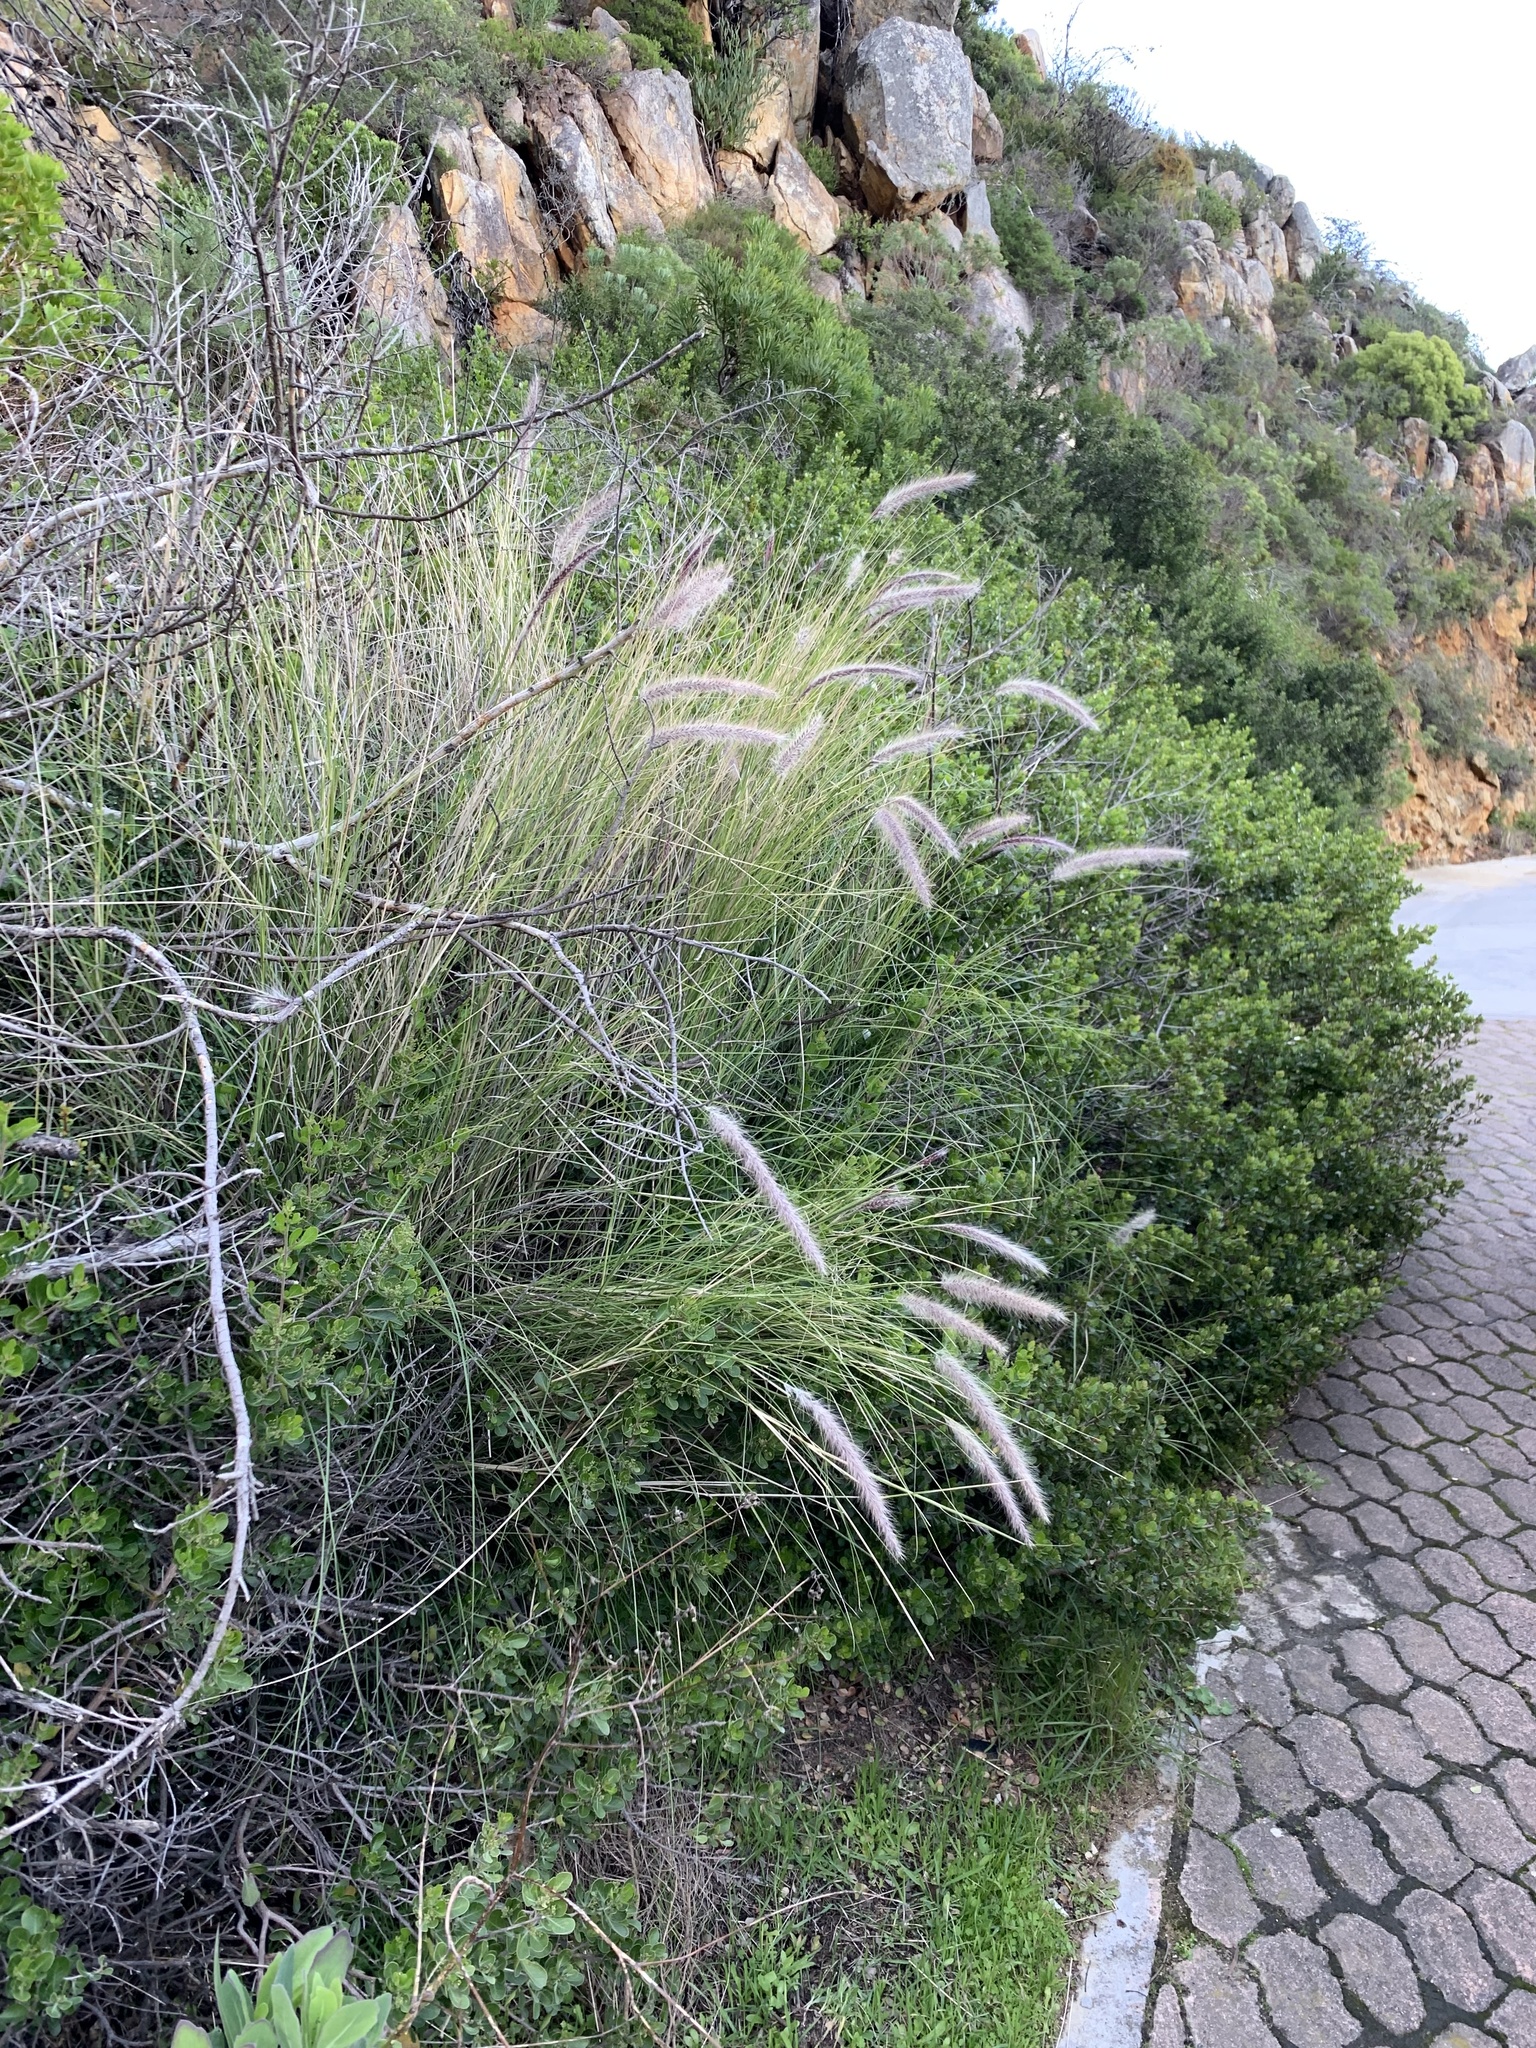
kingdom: Plantae
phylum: Tracheophyta
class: Liliopsida
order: Poales
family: Poaceae
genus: Cenchrus
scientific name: Cenchrus setaceus
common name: Crimson fountaingrass
